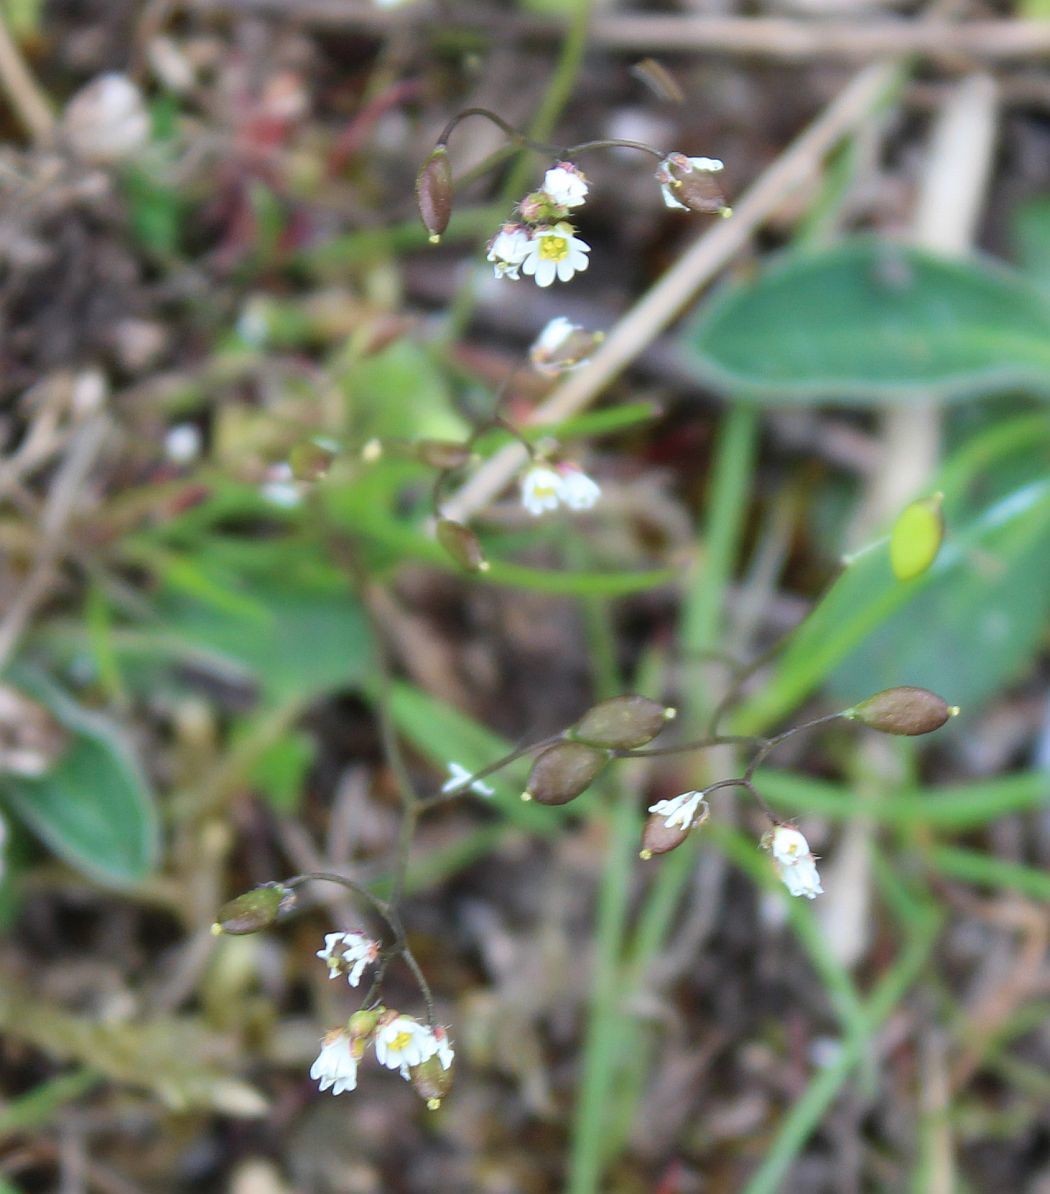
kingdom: Plantae
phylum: Tracheophyta
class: Magnoliopsida
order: Brassicales
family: Brassicaceae
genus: Draba
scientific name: Draba verna
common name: Spring draba
